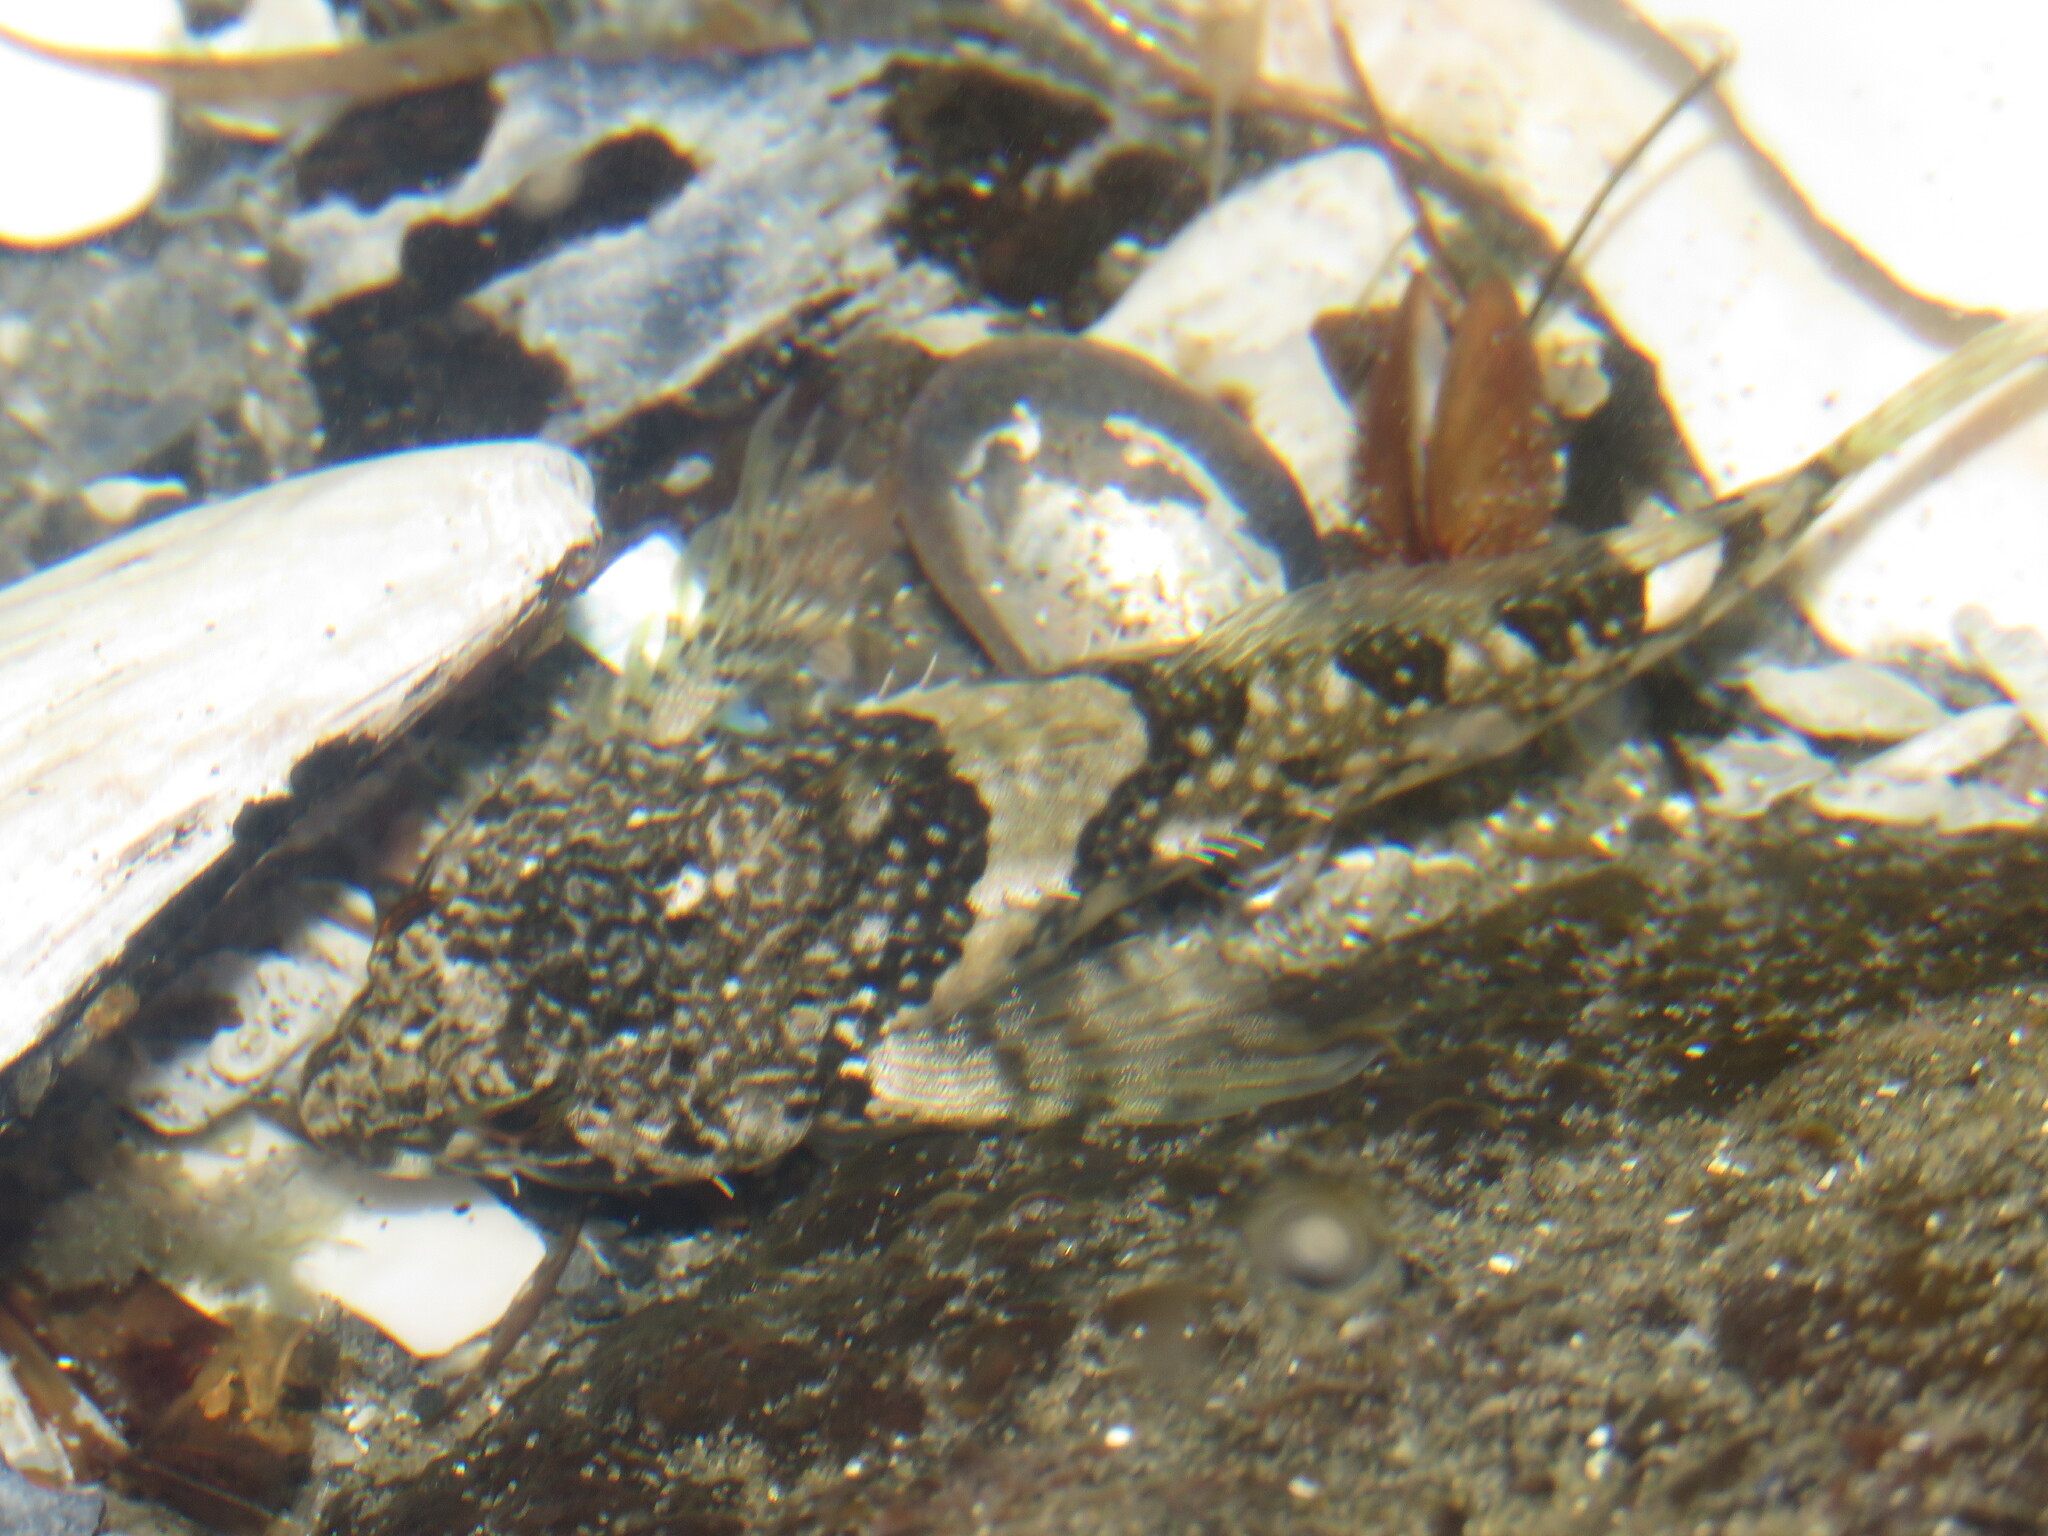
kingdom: Animalia
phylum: Chordata
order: Scorpaeniformes
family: Cottidae
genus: Oligocottus
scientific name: Oligocottus maculosus
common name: Tidepool sculpin
